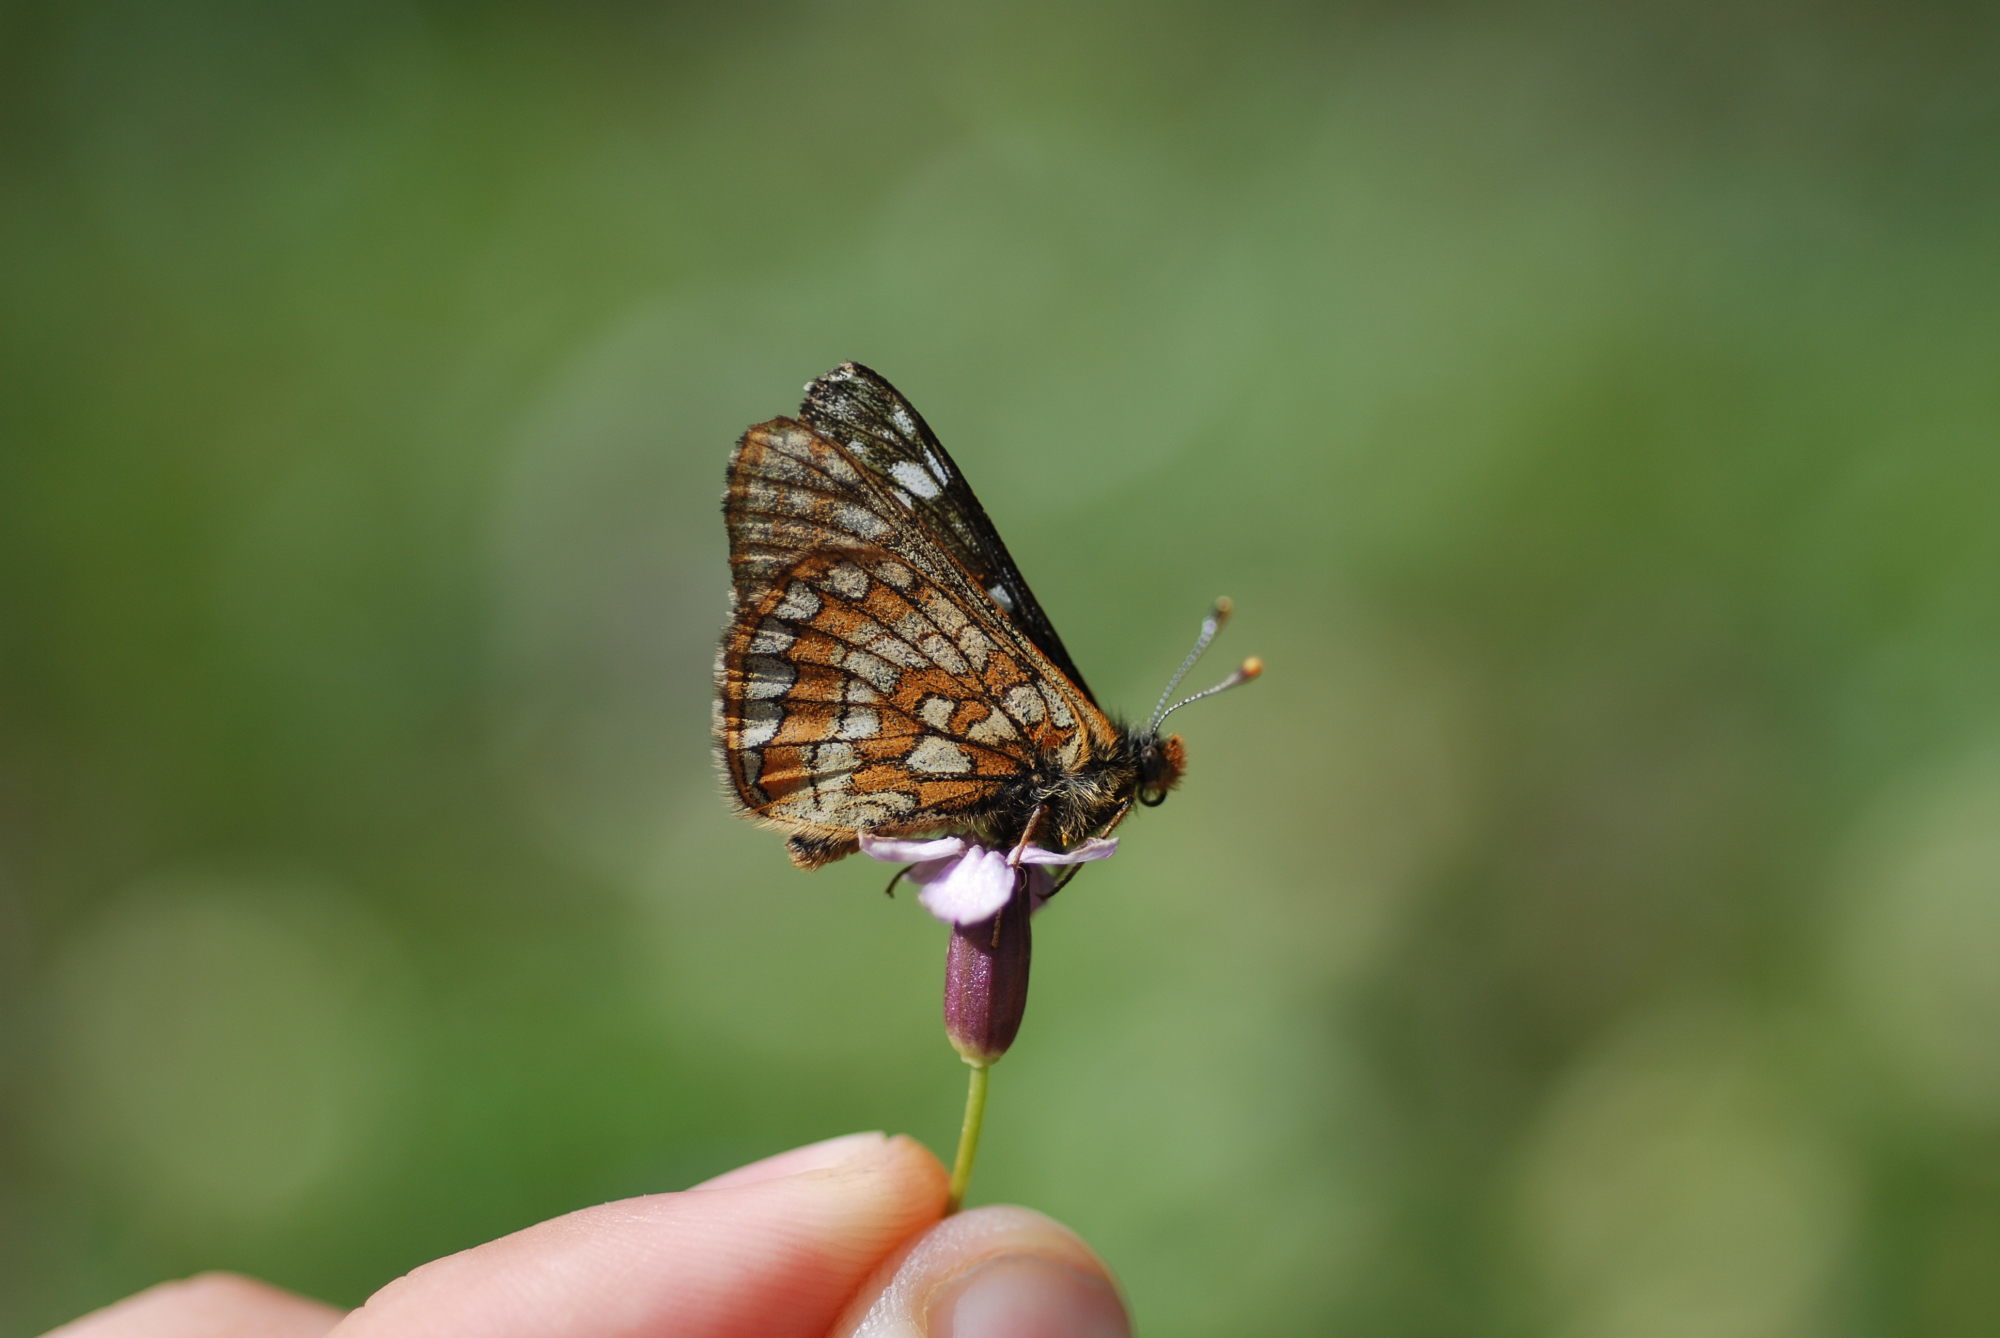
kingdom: Animalia
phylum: Arthropoda
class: Insecta
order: Lepidoptera
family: Nymphalidae
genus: Hypodryas
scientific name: Hypodryas cynthia
